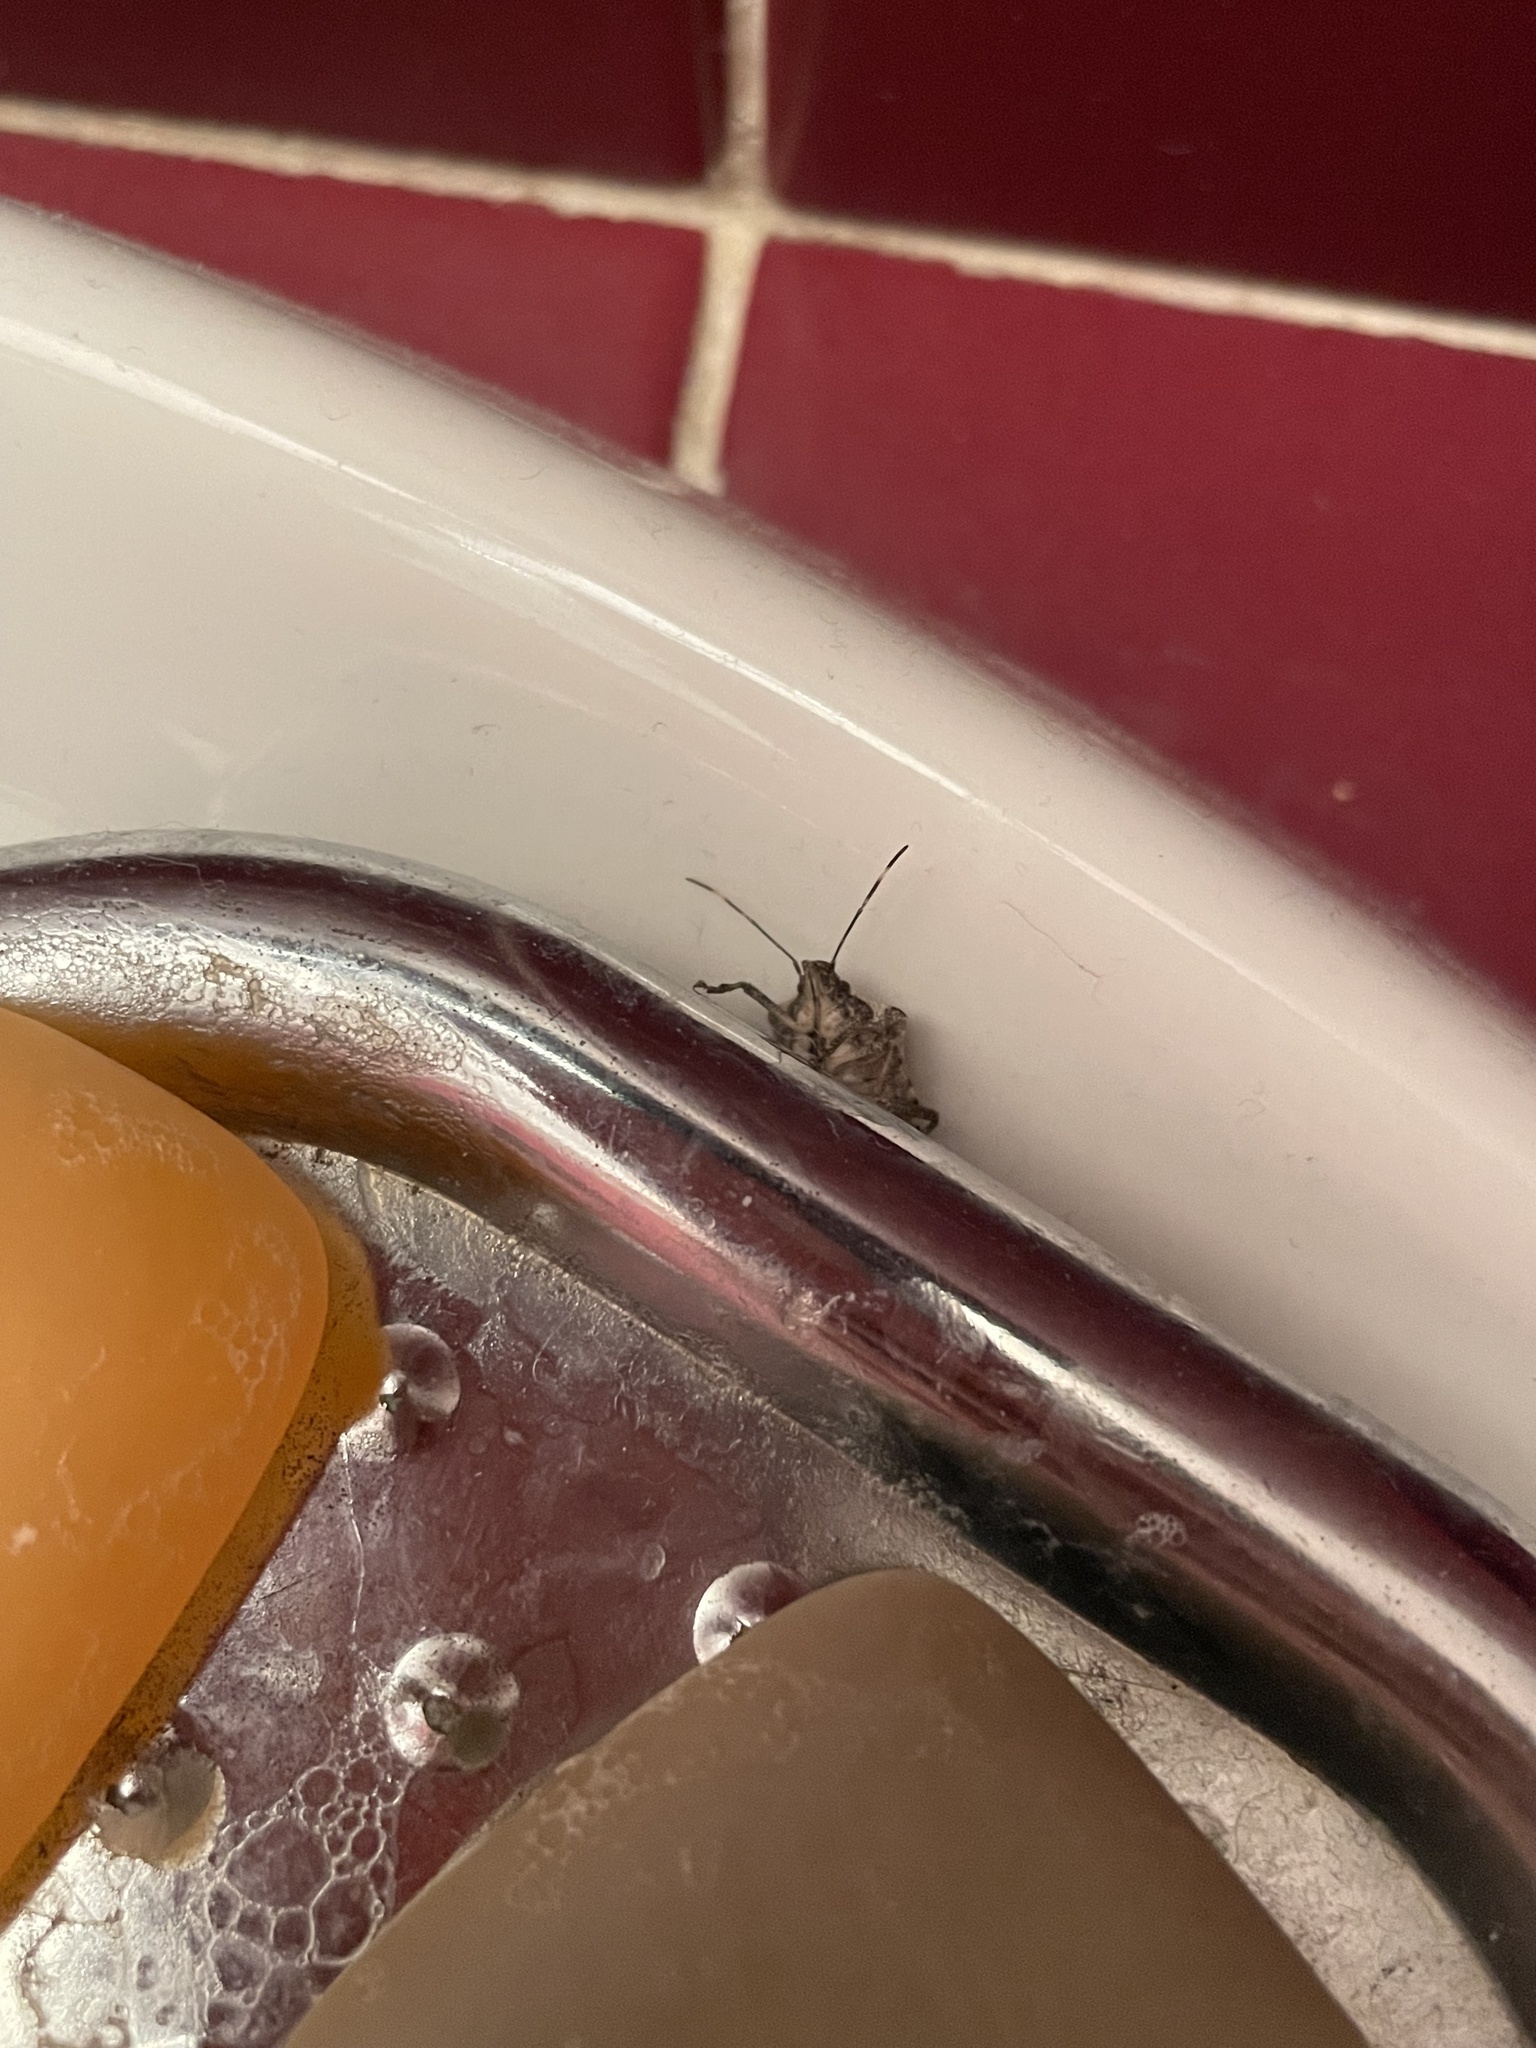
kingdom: Animalia
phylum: Arthropoda
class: Insecta
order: Hemiptera
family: Pentatomidae
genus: Halyomorpha
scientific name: Halyomorpha halys
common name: Brown marmorated stink bug
